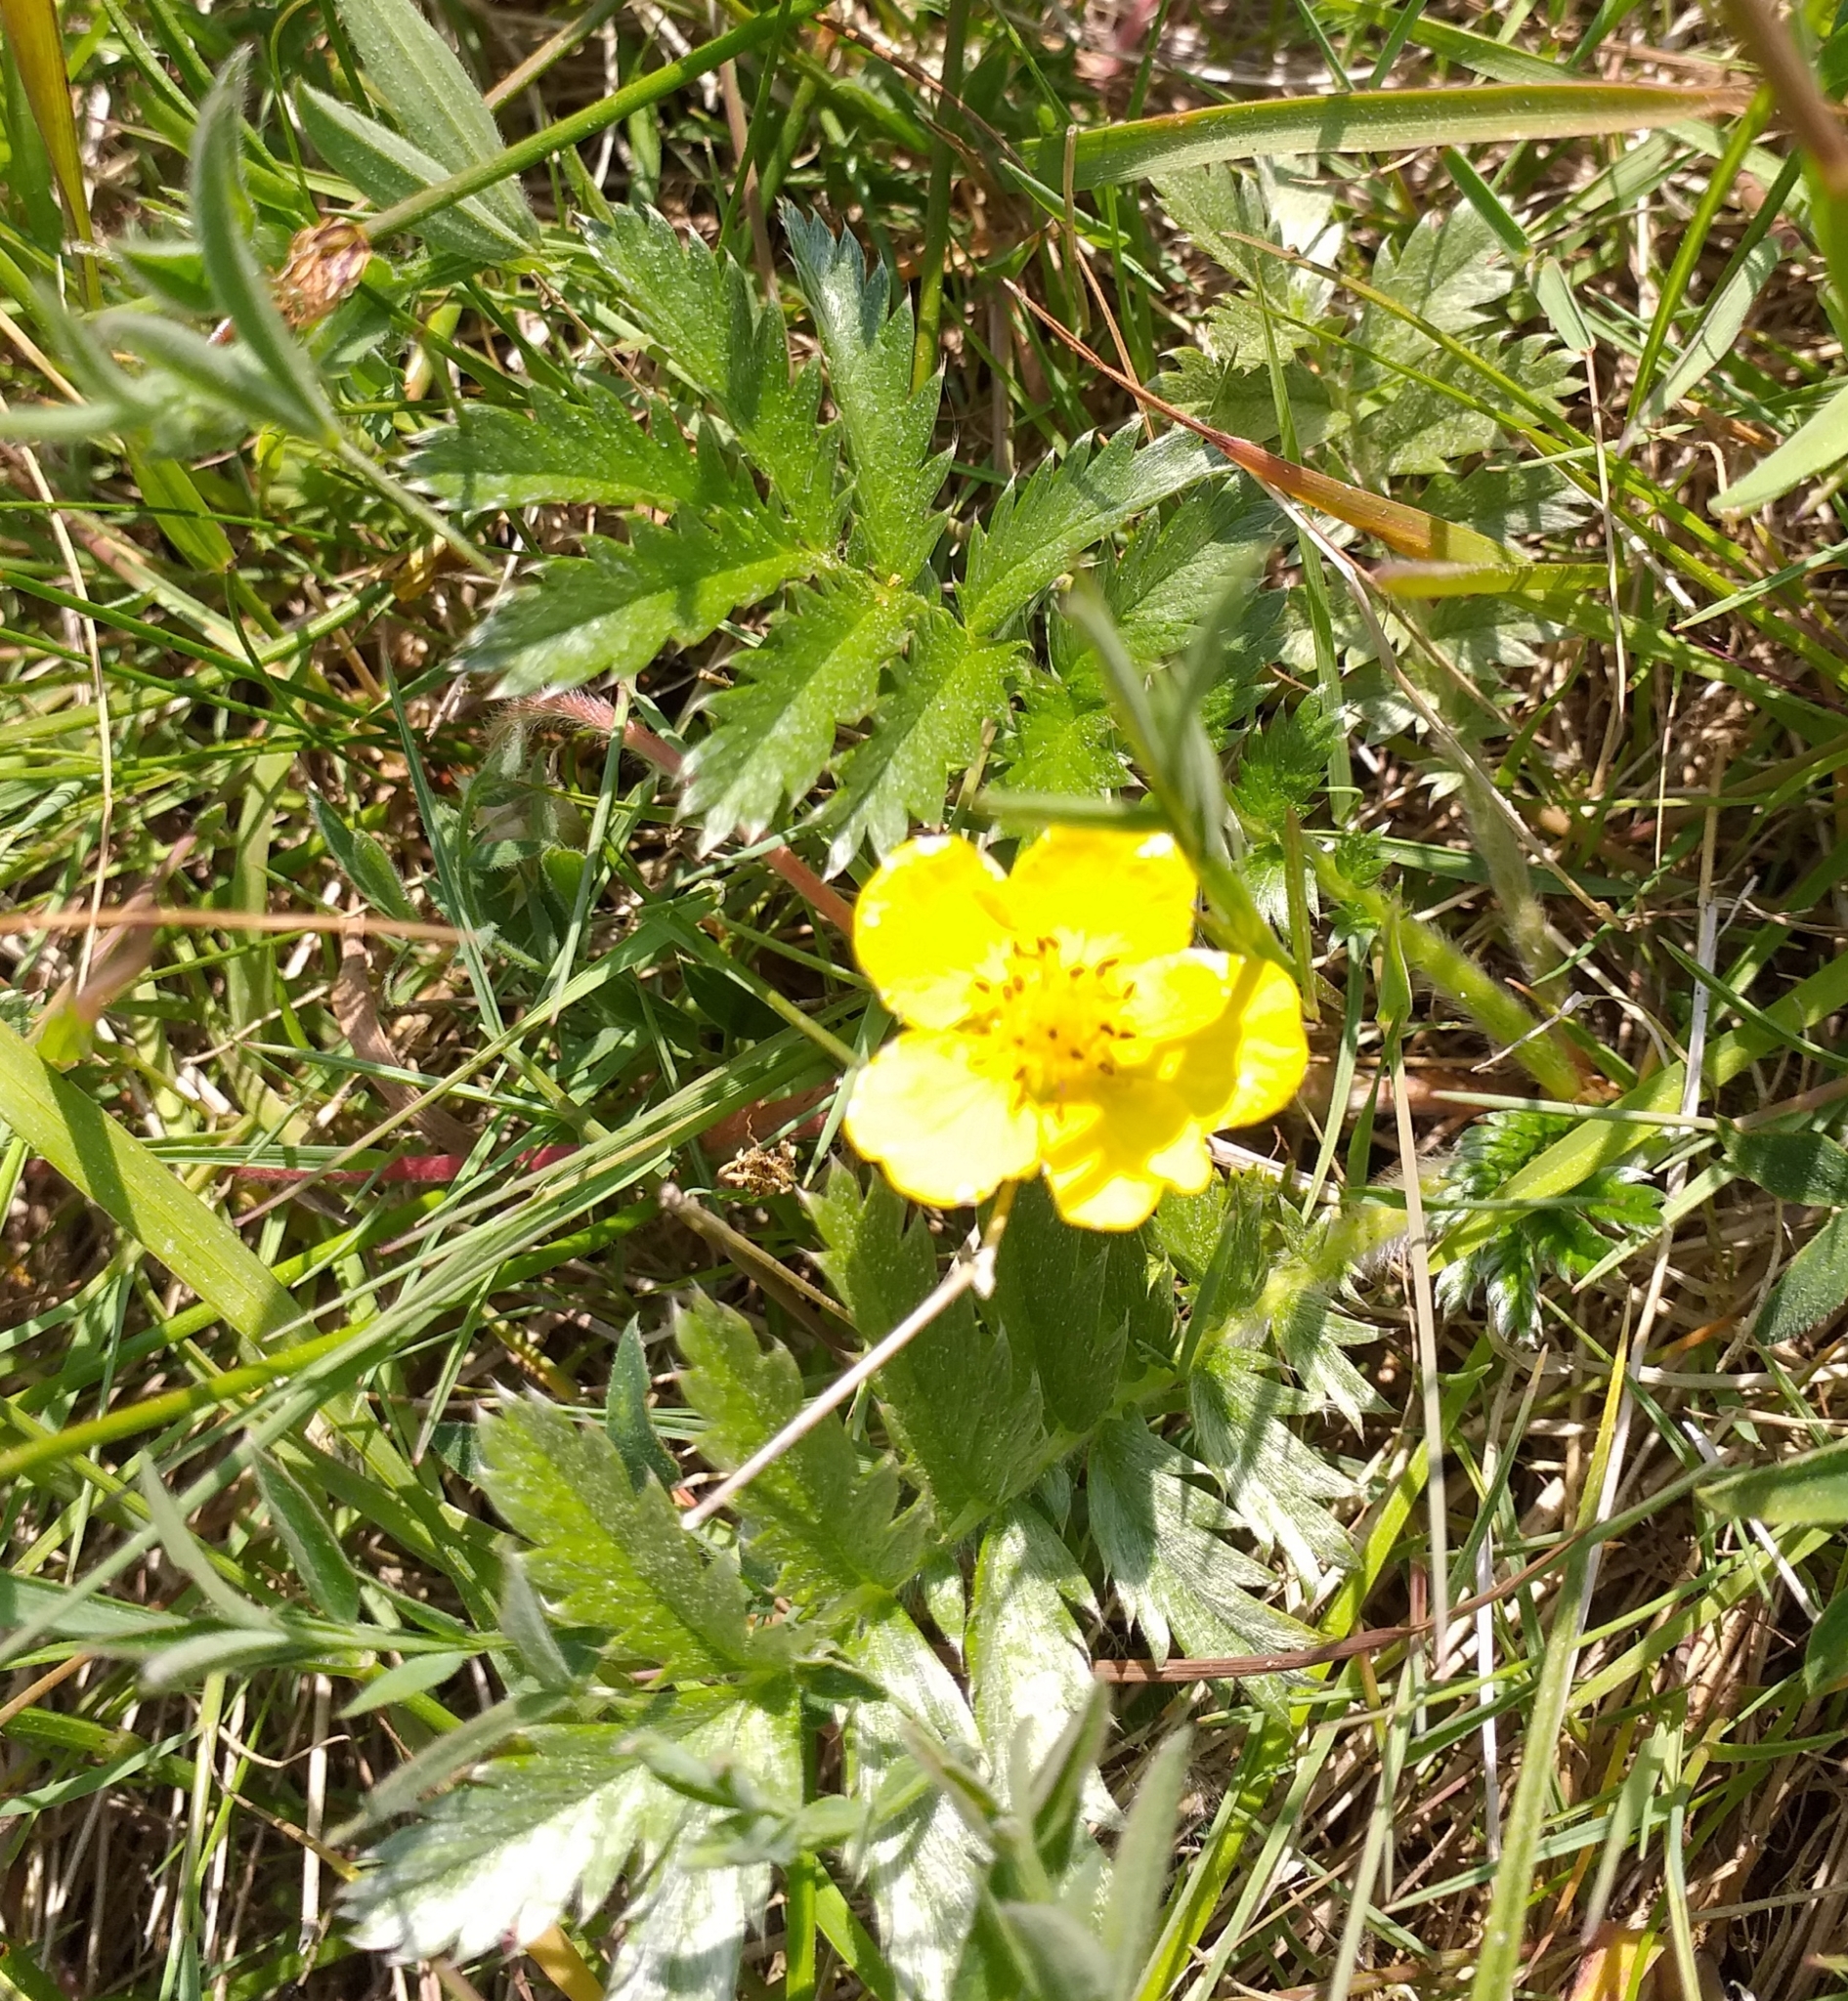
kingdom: Plantae
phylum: Tracheophyta
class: Magnoliopsida
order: Rosales
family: Rosaceae
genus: Argentina
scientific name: Argentina anserina
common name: Common silverweed
